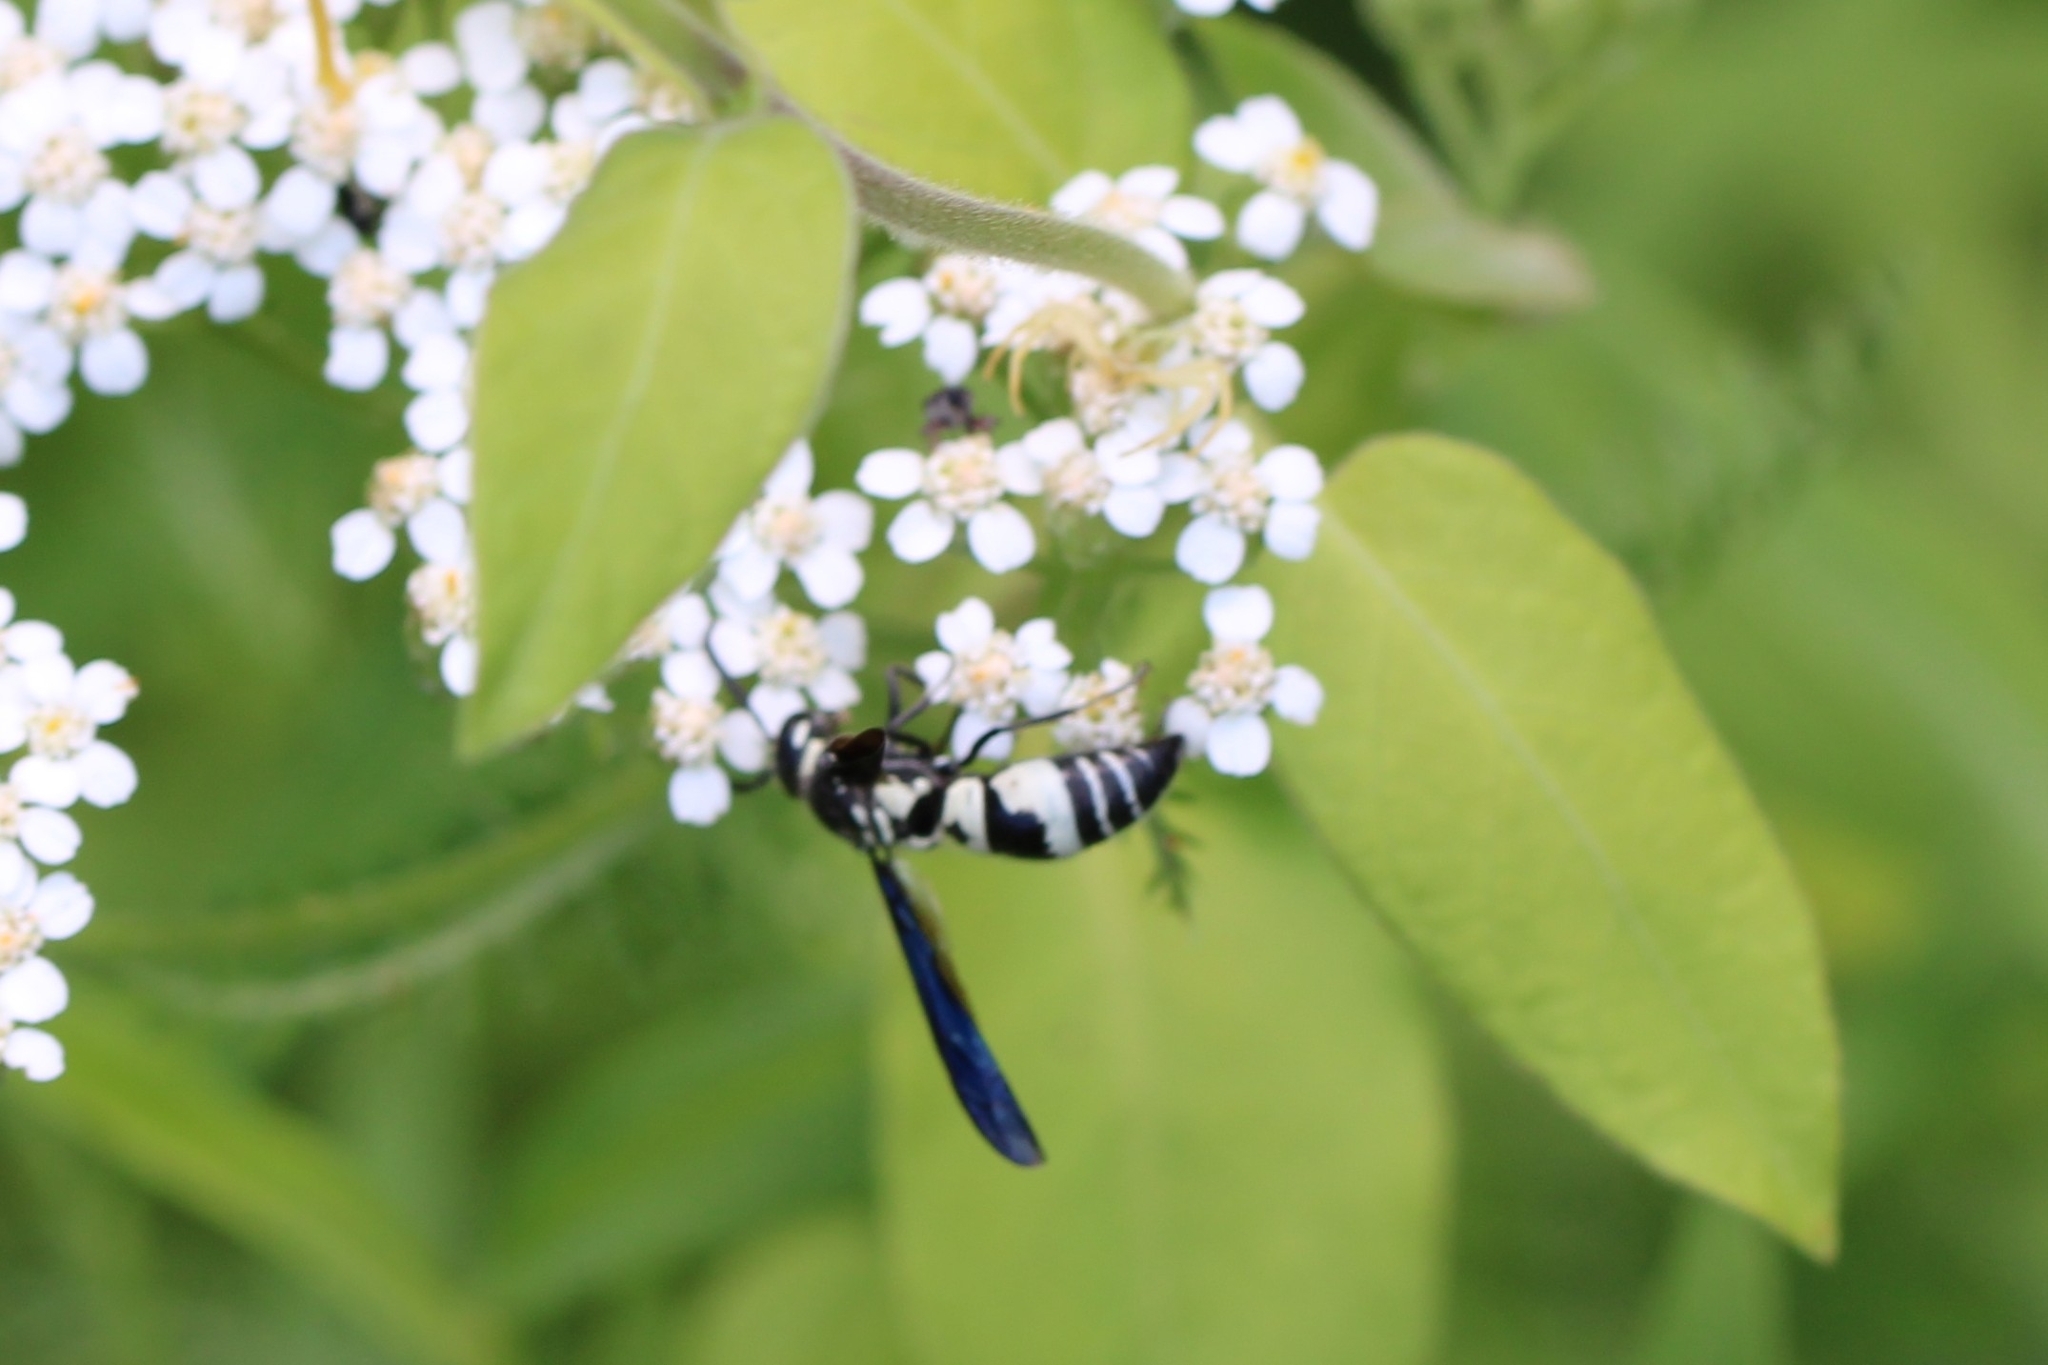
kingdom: Animalia
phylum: Arthropoda
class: Insecta
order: Hymenoptera
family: Eumenidae
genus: Pseudodynerus
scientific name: Pseudodynerus quadrisectus
